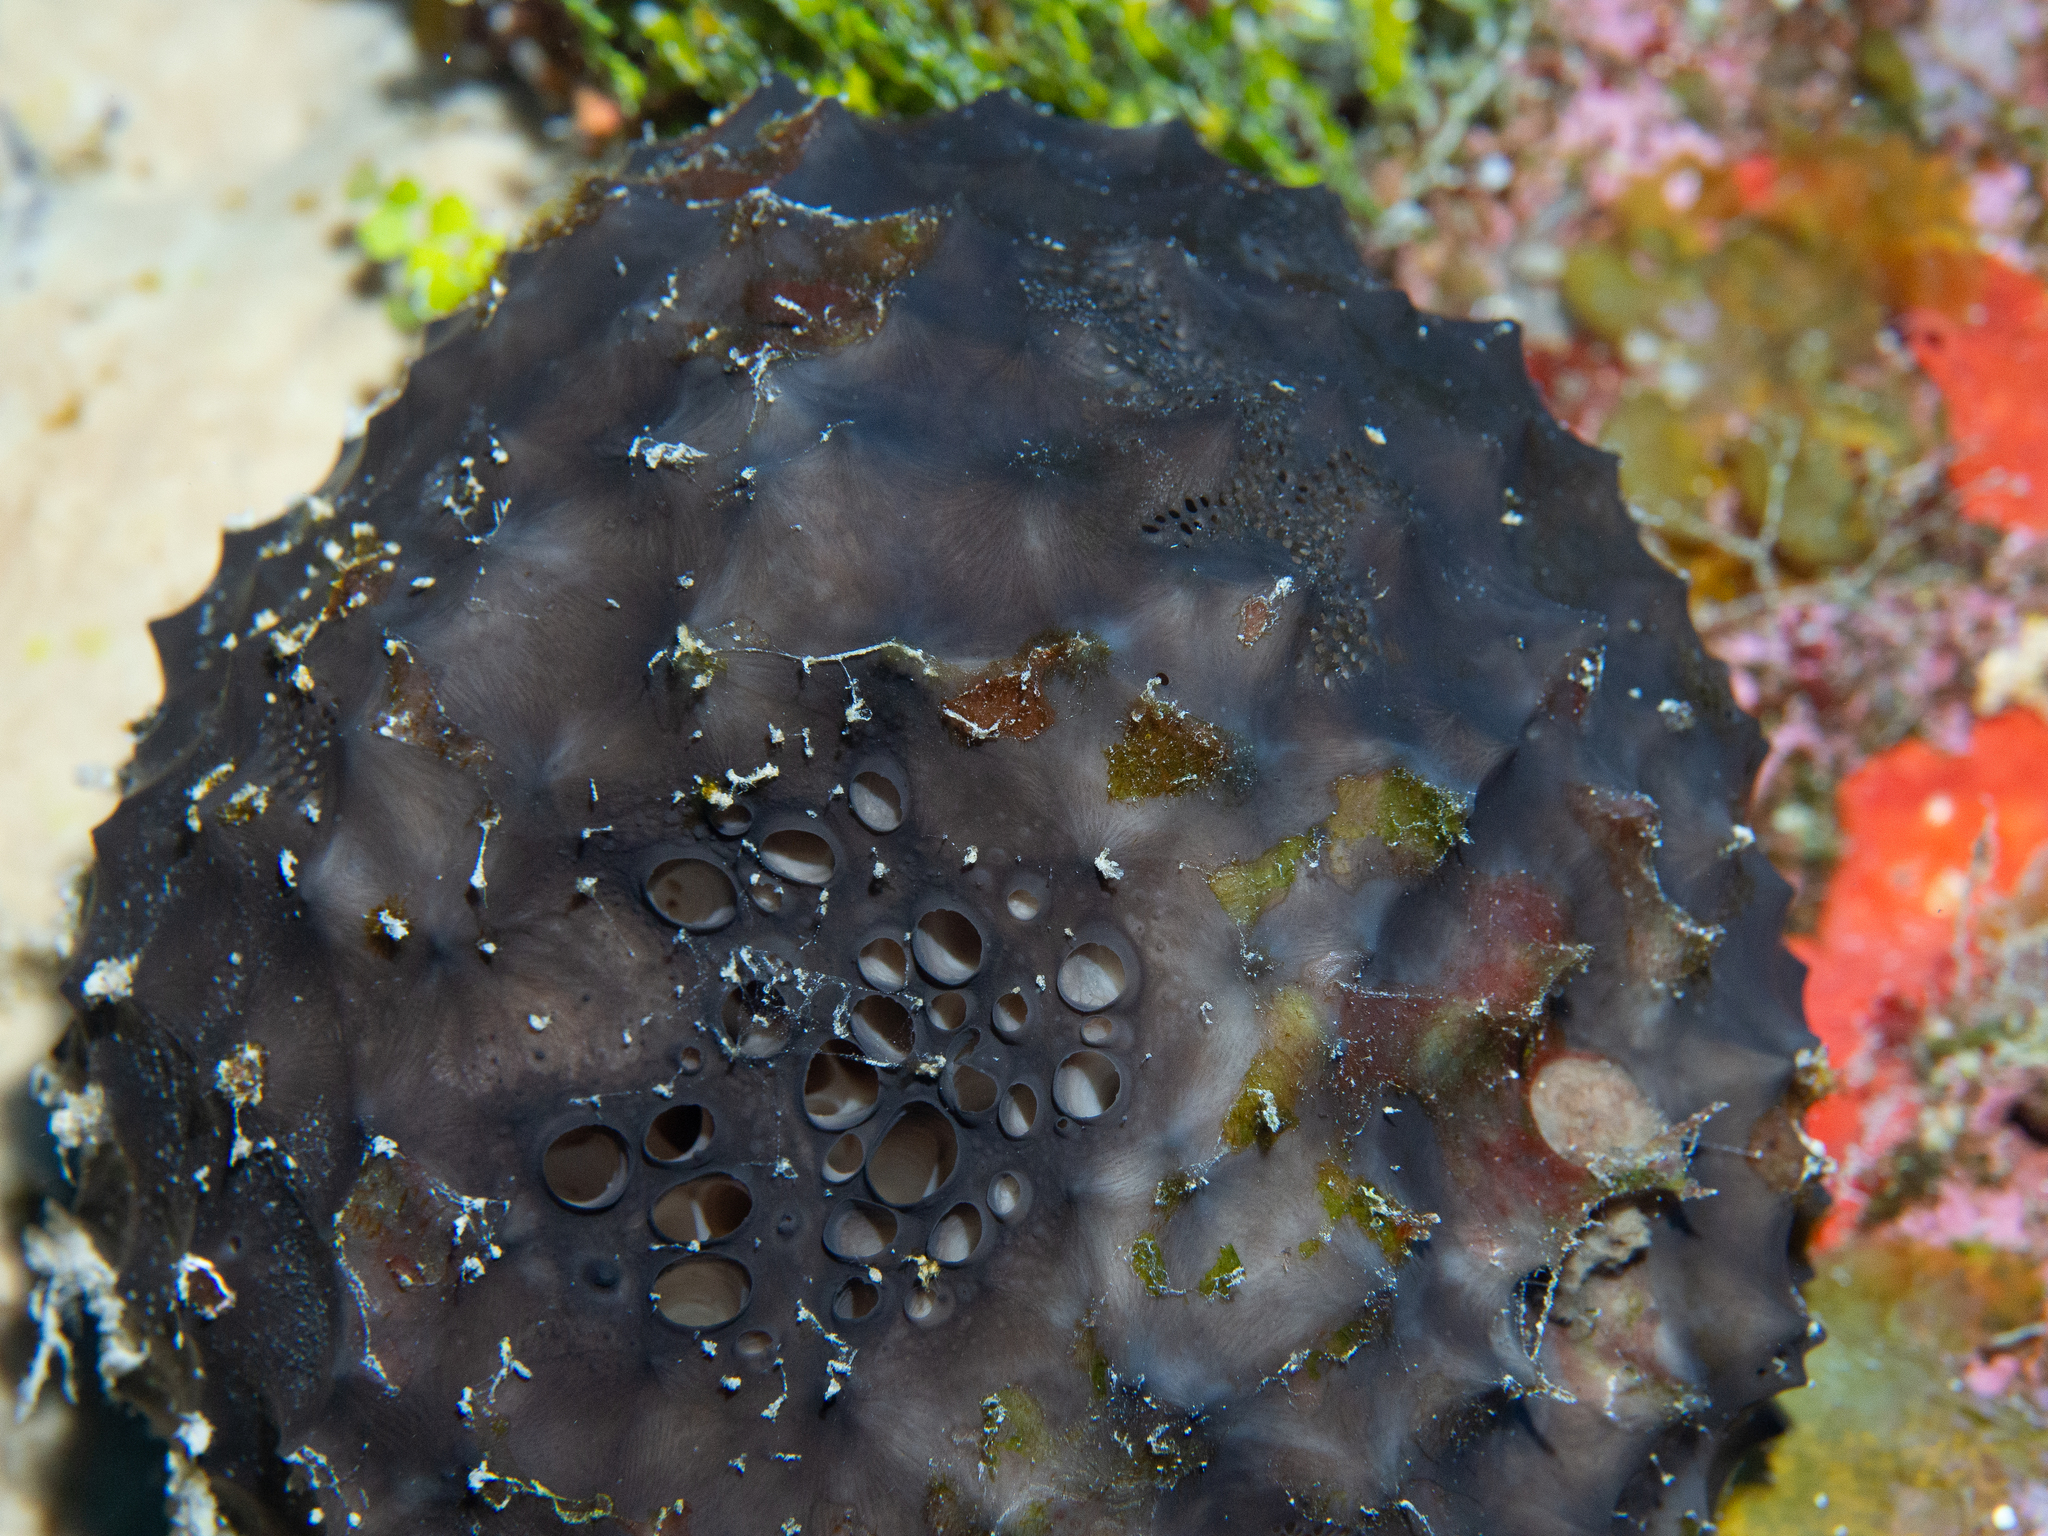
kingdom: Animalia
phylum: Porifera
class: Demospongiae
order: Dictyoceratida
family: Irciniidae
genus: Ircinia
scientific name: Ircinia strobilina
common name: Cake sponge
